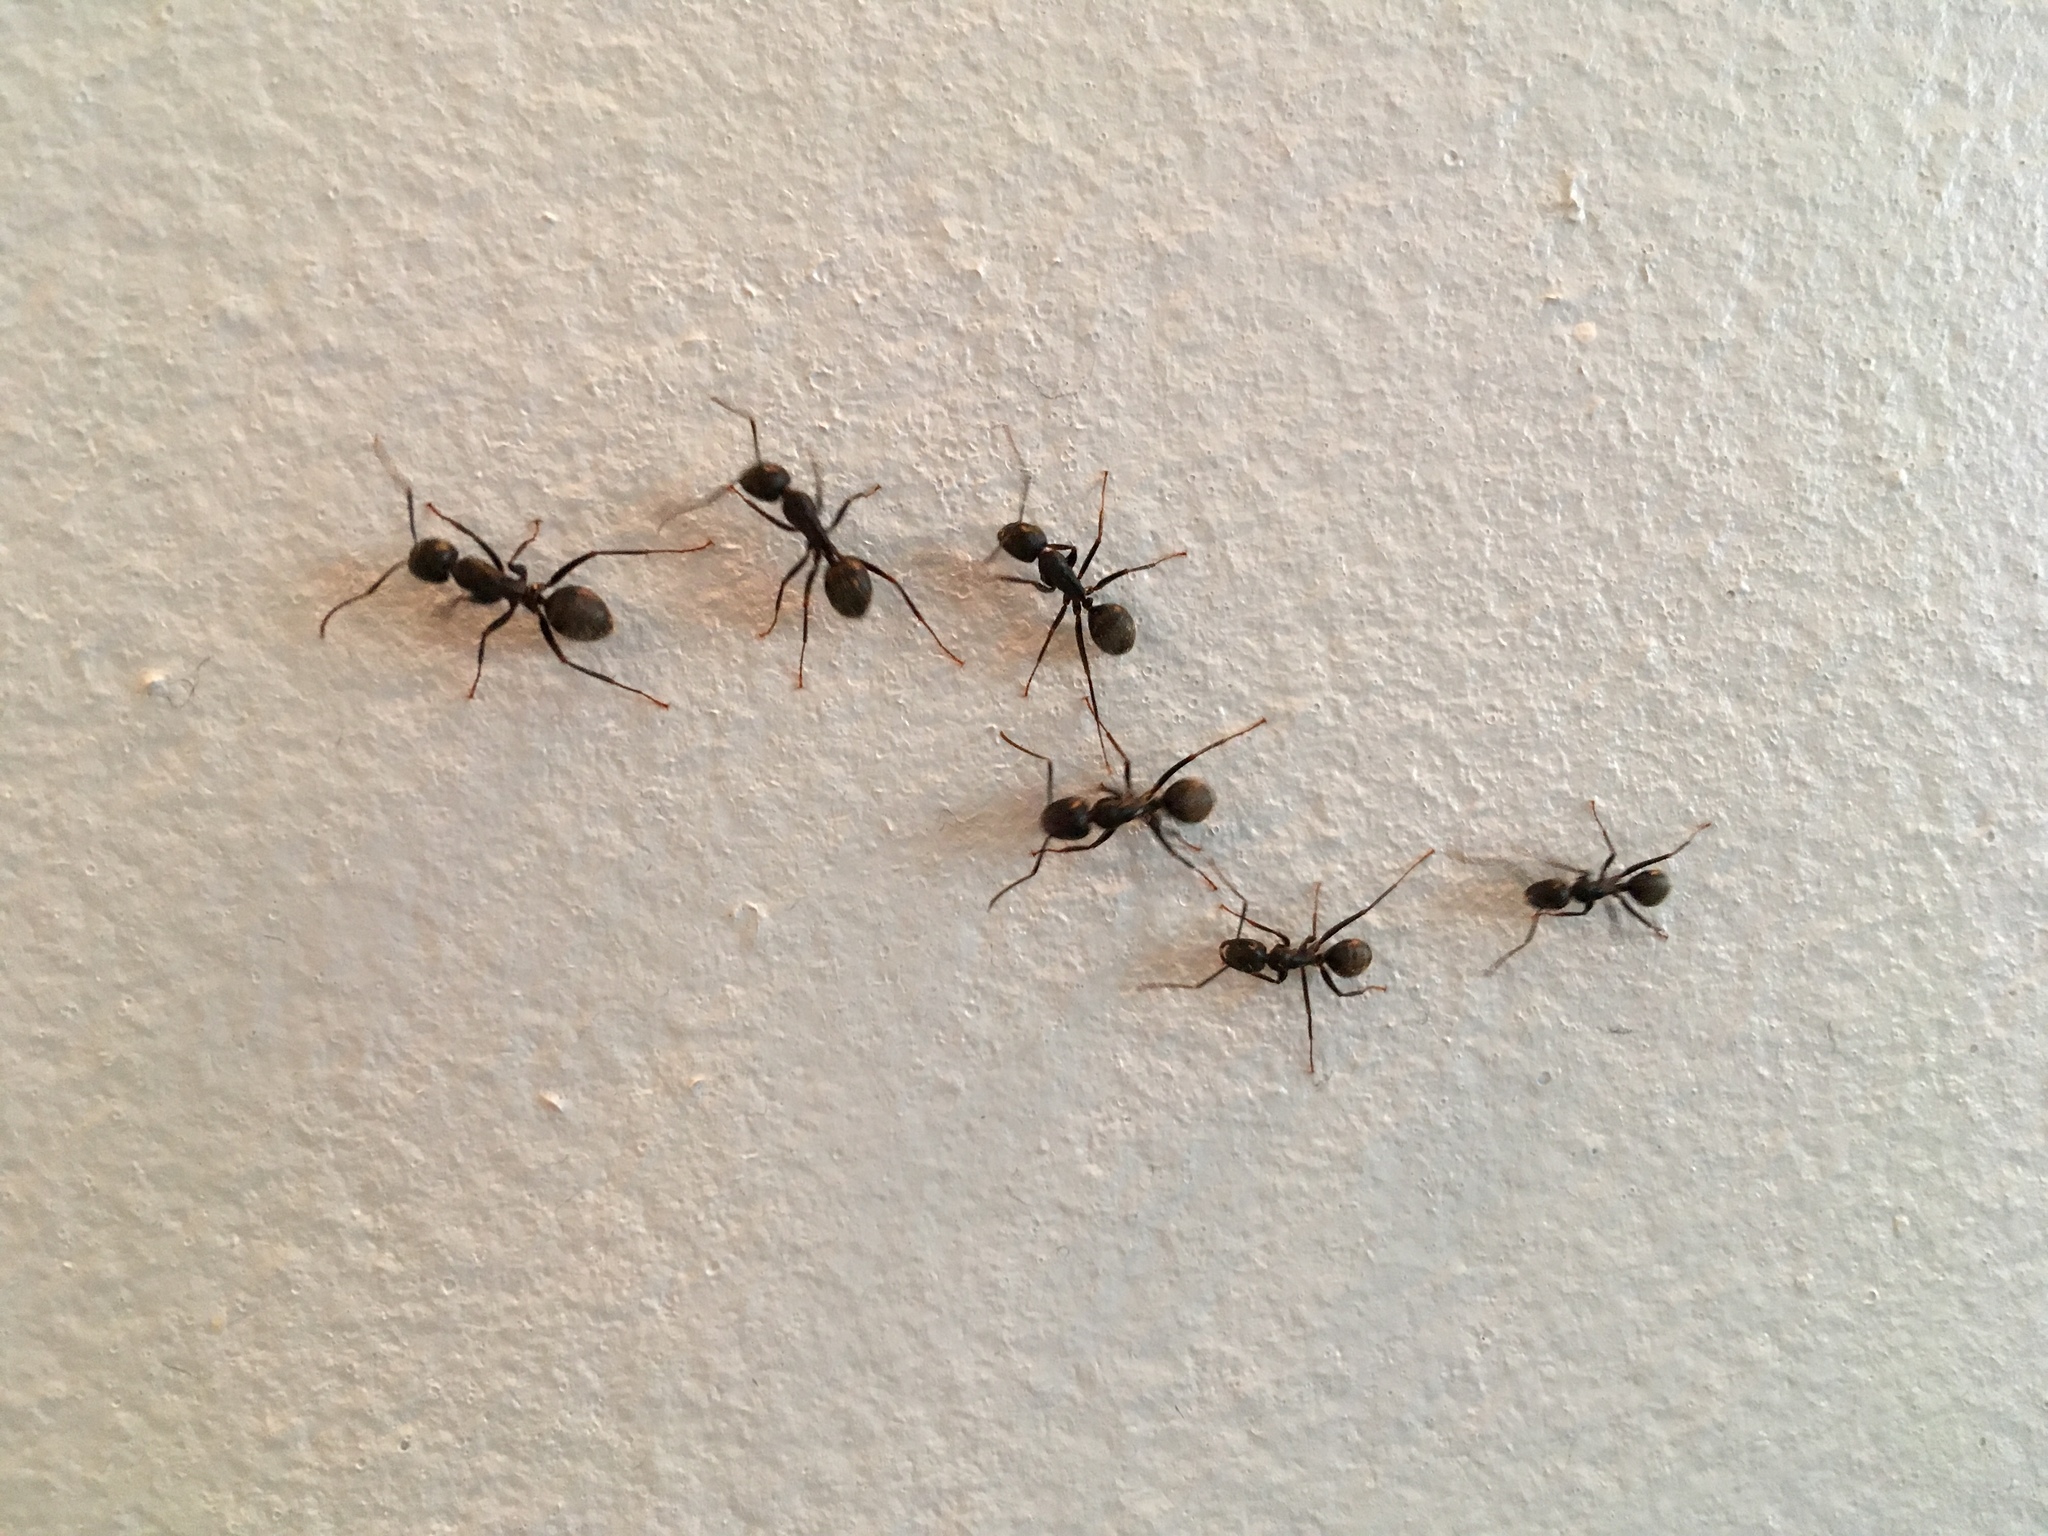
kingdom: Animalia
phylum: Arthropoda
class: Insecta
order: Hymenoptera
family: Formicidae
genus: Camponotus
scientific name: Camponotus pennsylvanicus
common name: Black carpenter ant
